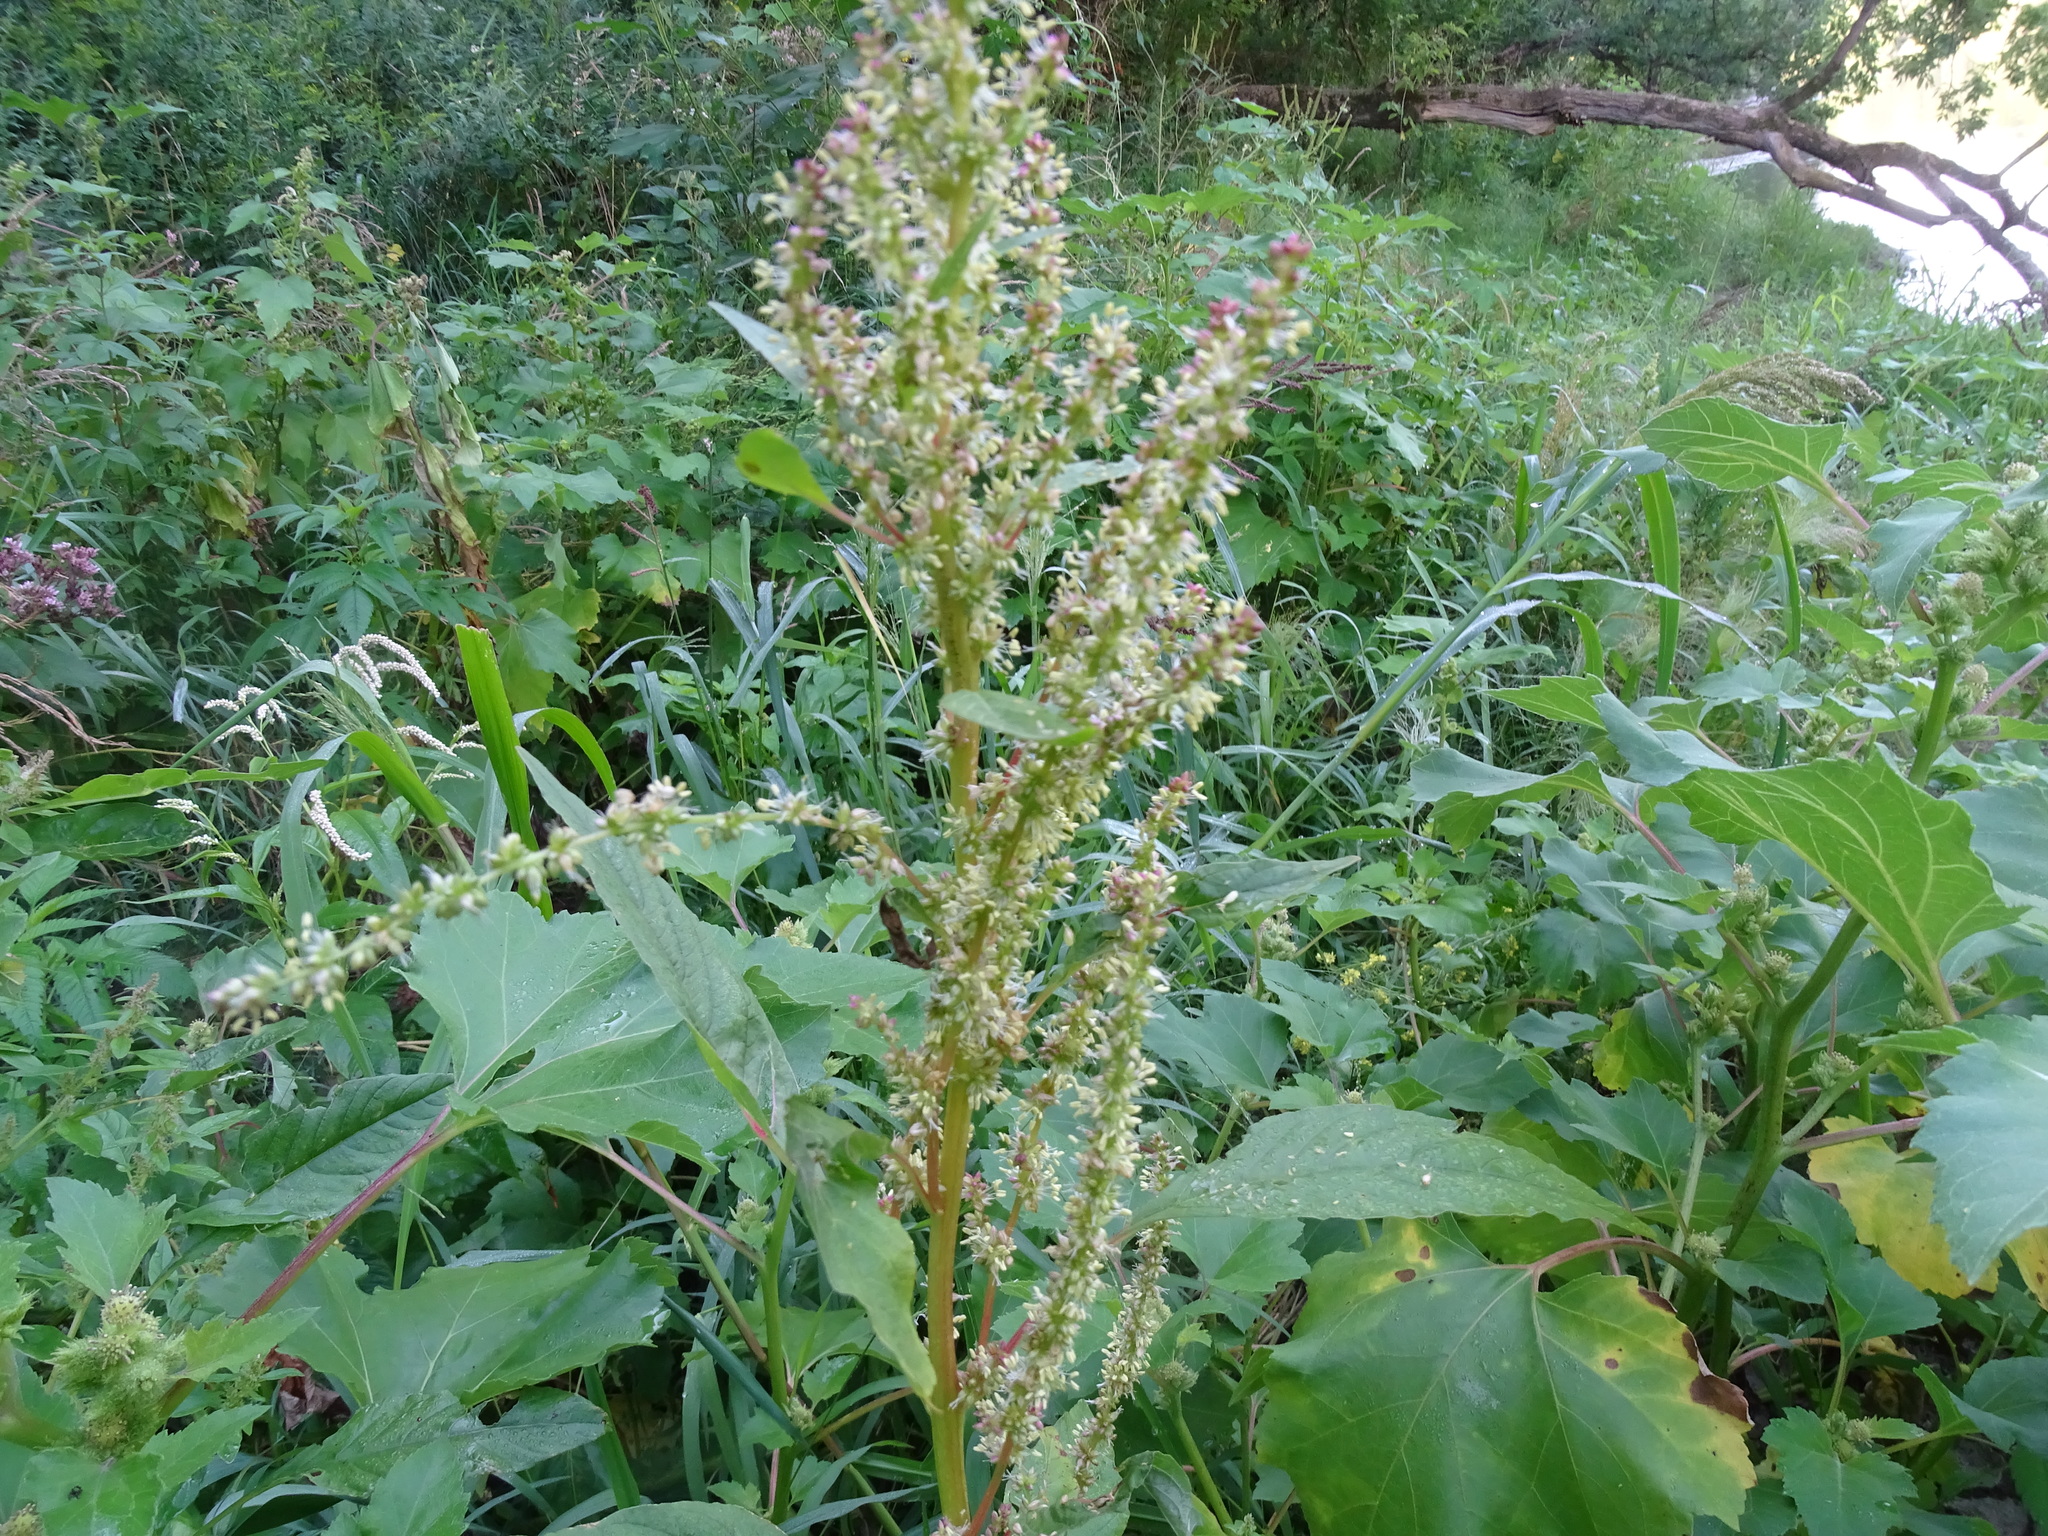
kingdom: Plantae
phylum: Tracheophyta
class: Magnoliopsida
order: Caryophyllales
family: Amaranthaceae
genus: Amaranthus
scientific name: Amaranthus tuberculatus
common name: Rough-fruit amaranth
